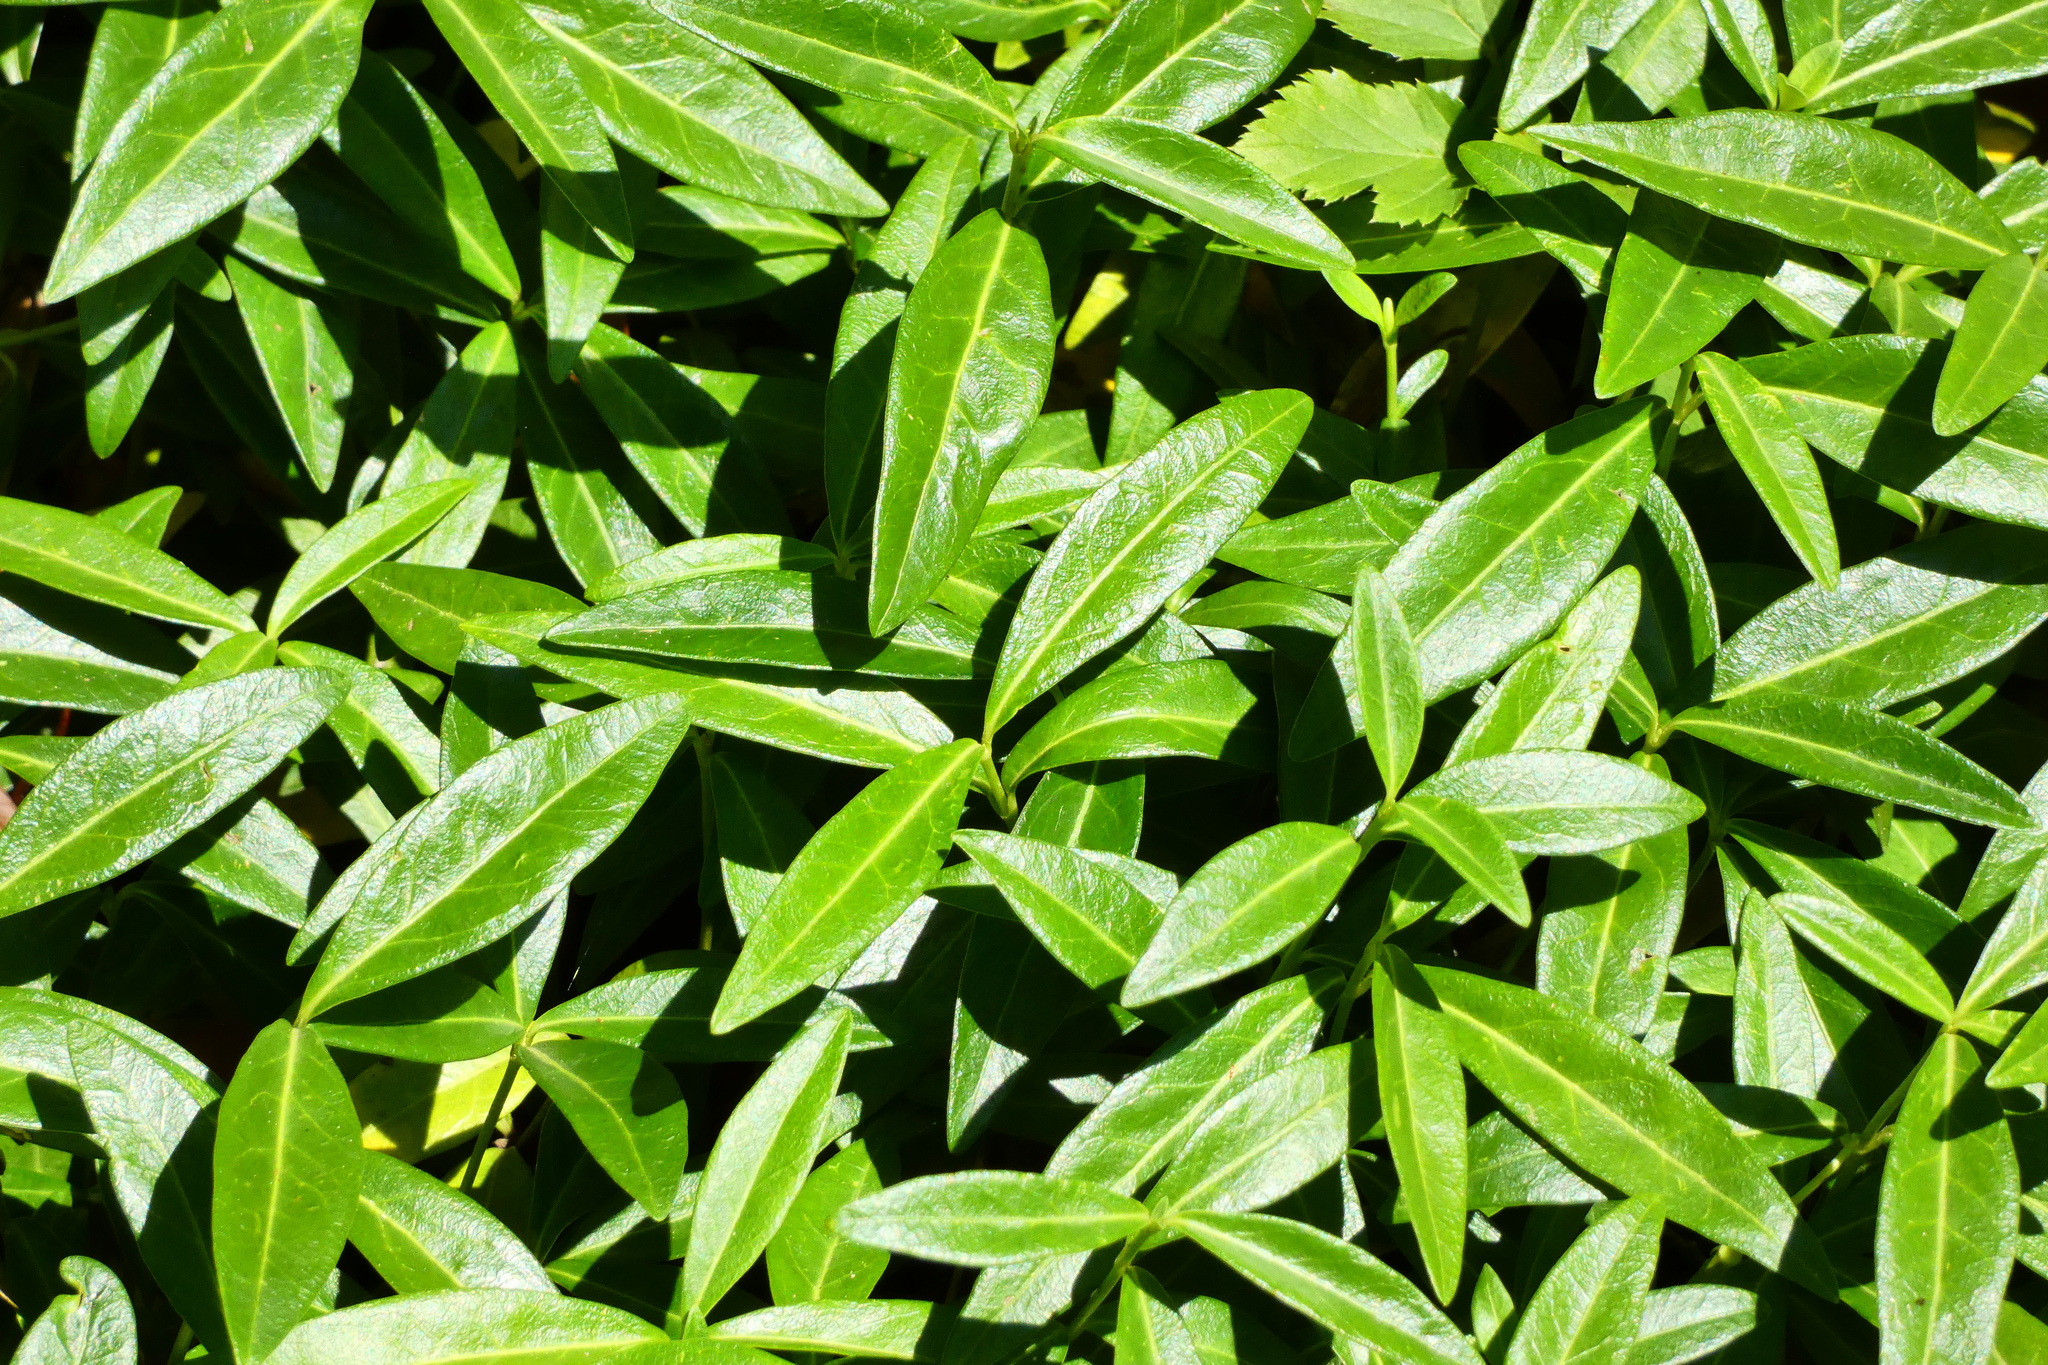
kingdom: Plantae
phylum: Tracheophyta
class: Magnoliopsida
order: Gentianales
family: Apocynaceae
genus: Vinca
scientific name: Vinca minor
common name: Lesser periwinkle
